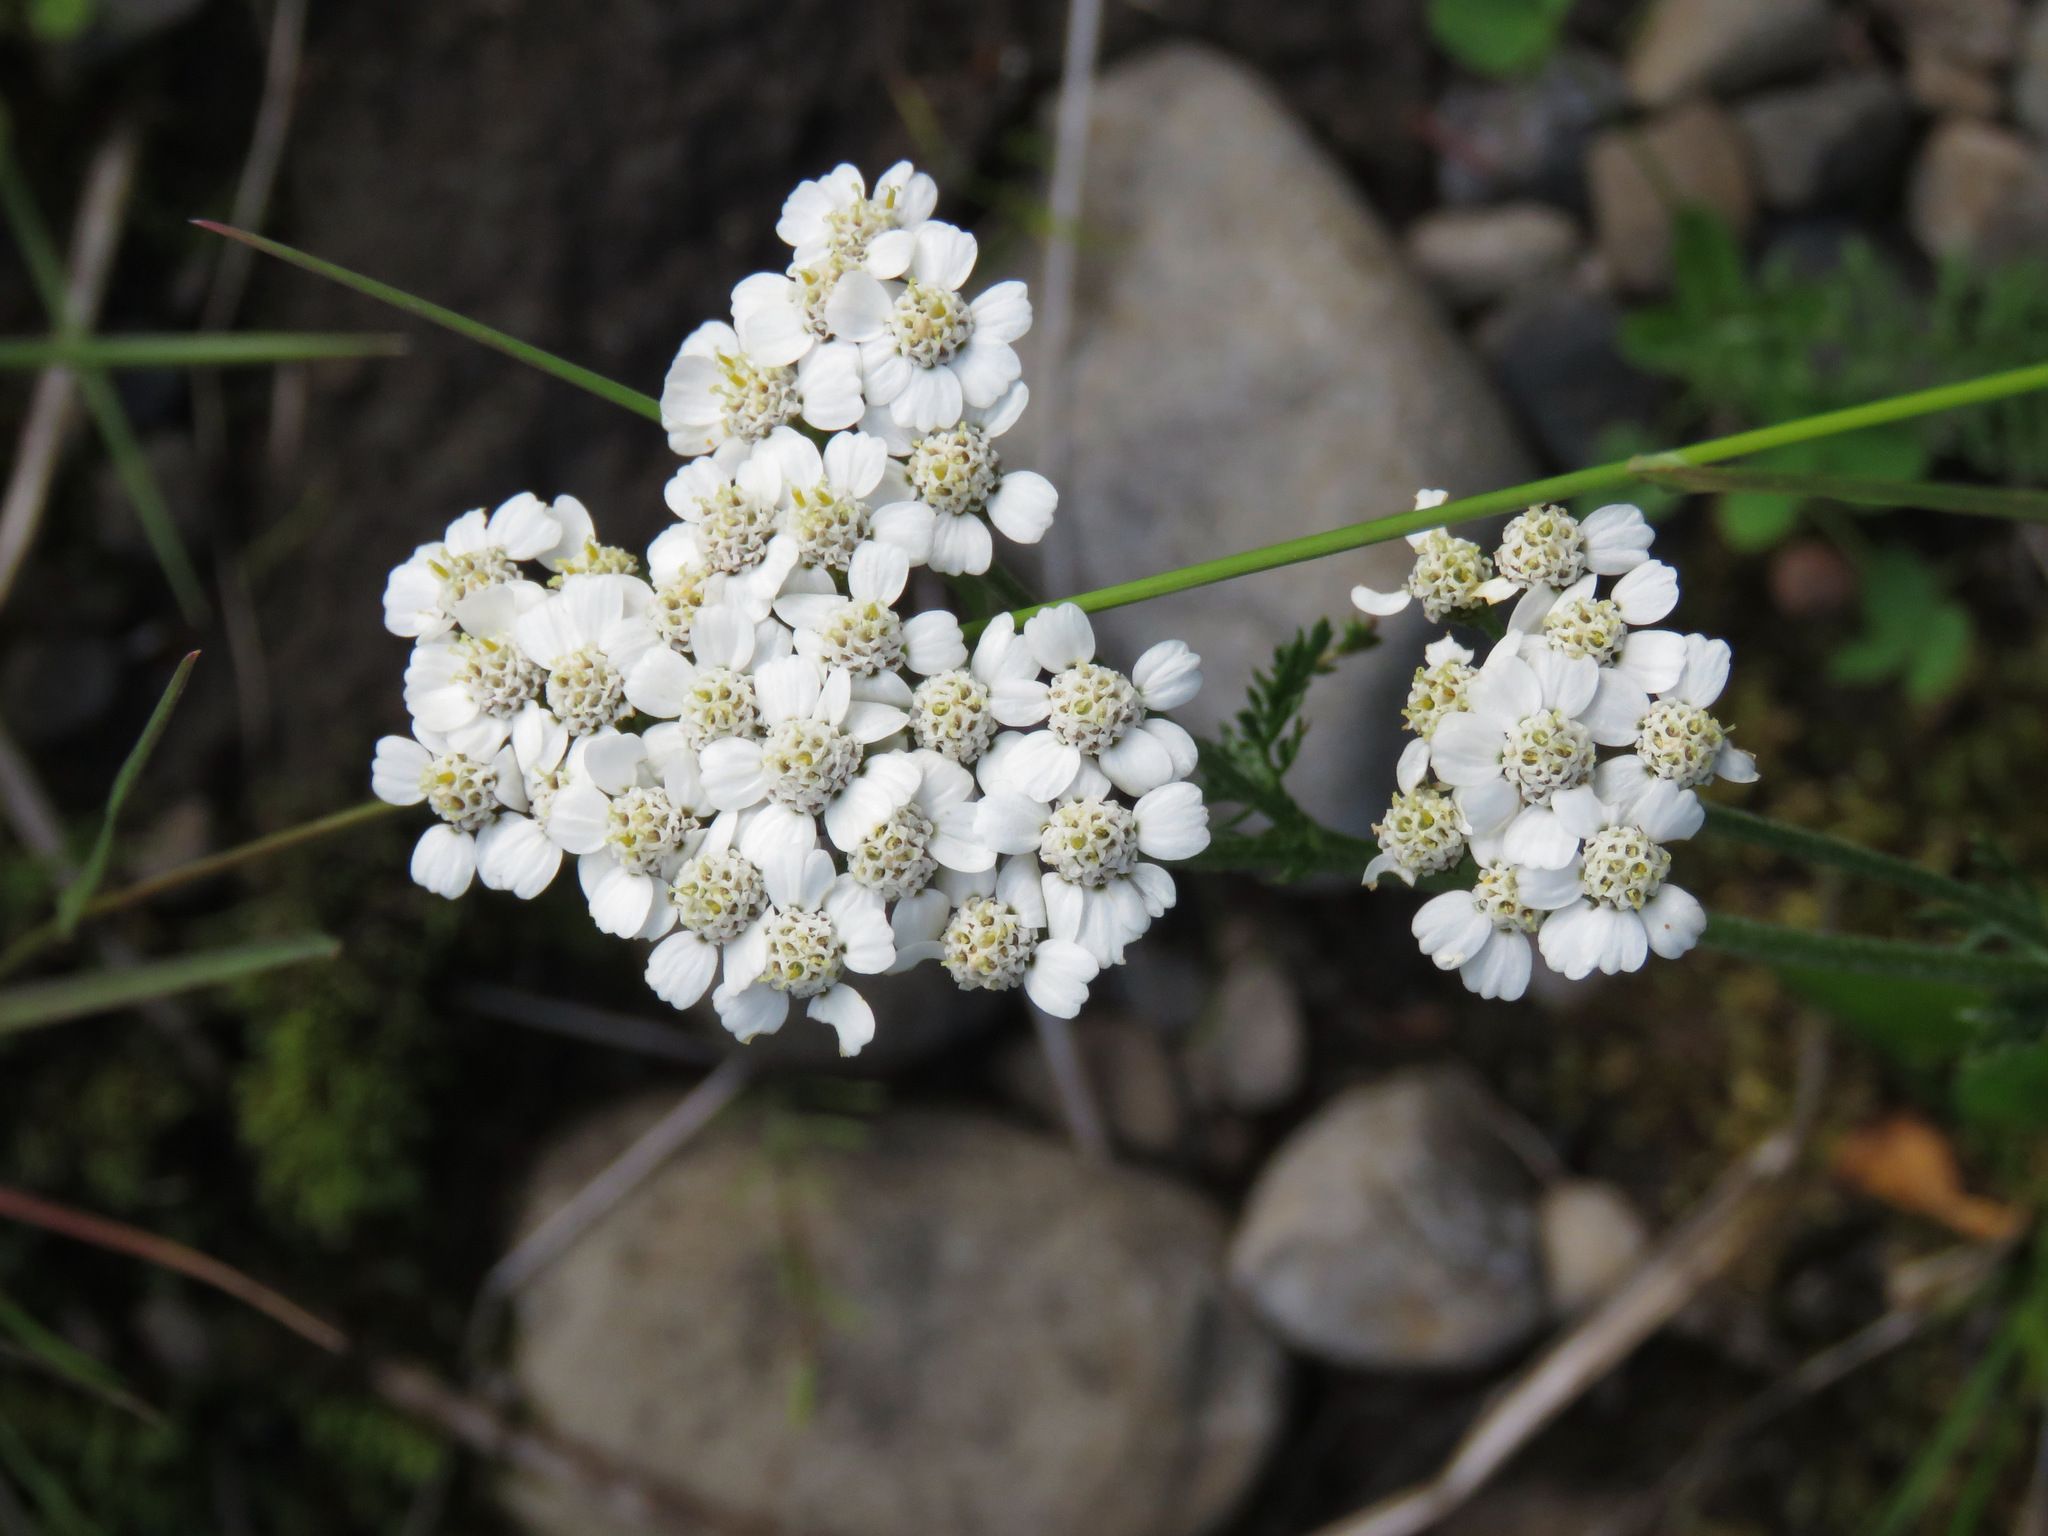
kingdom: Plantae
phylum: Tracheophyta
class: Magnoliopsida
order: Asterales
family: Asteraceae
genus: Achillea
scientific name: Achillea millefolium
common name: Yarrow
